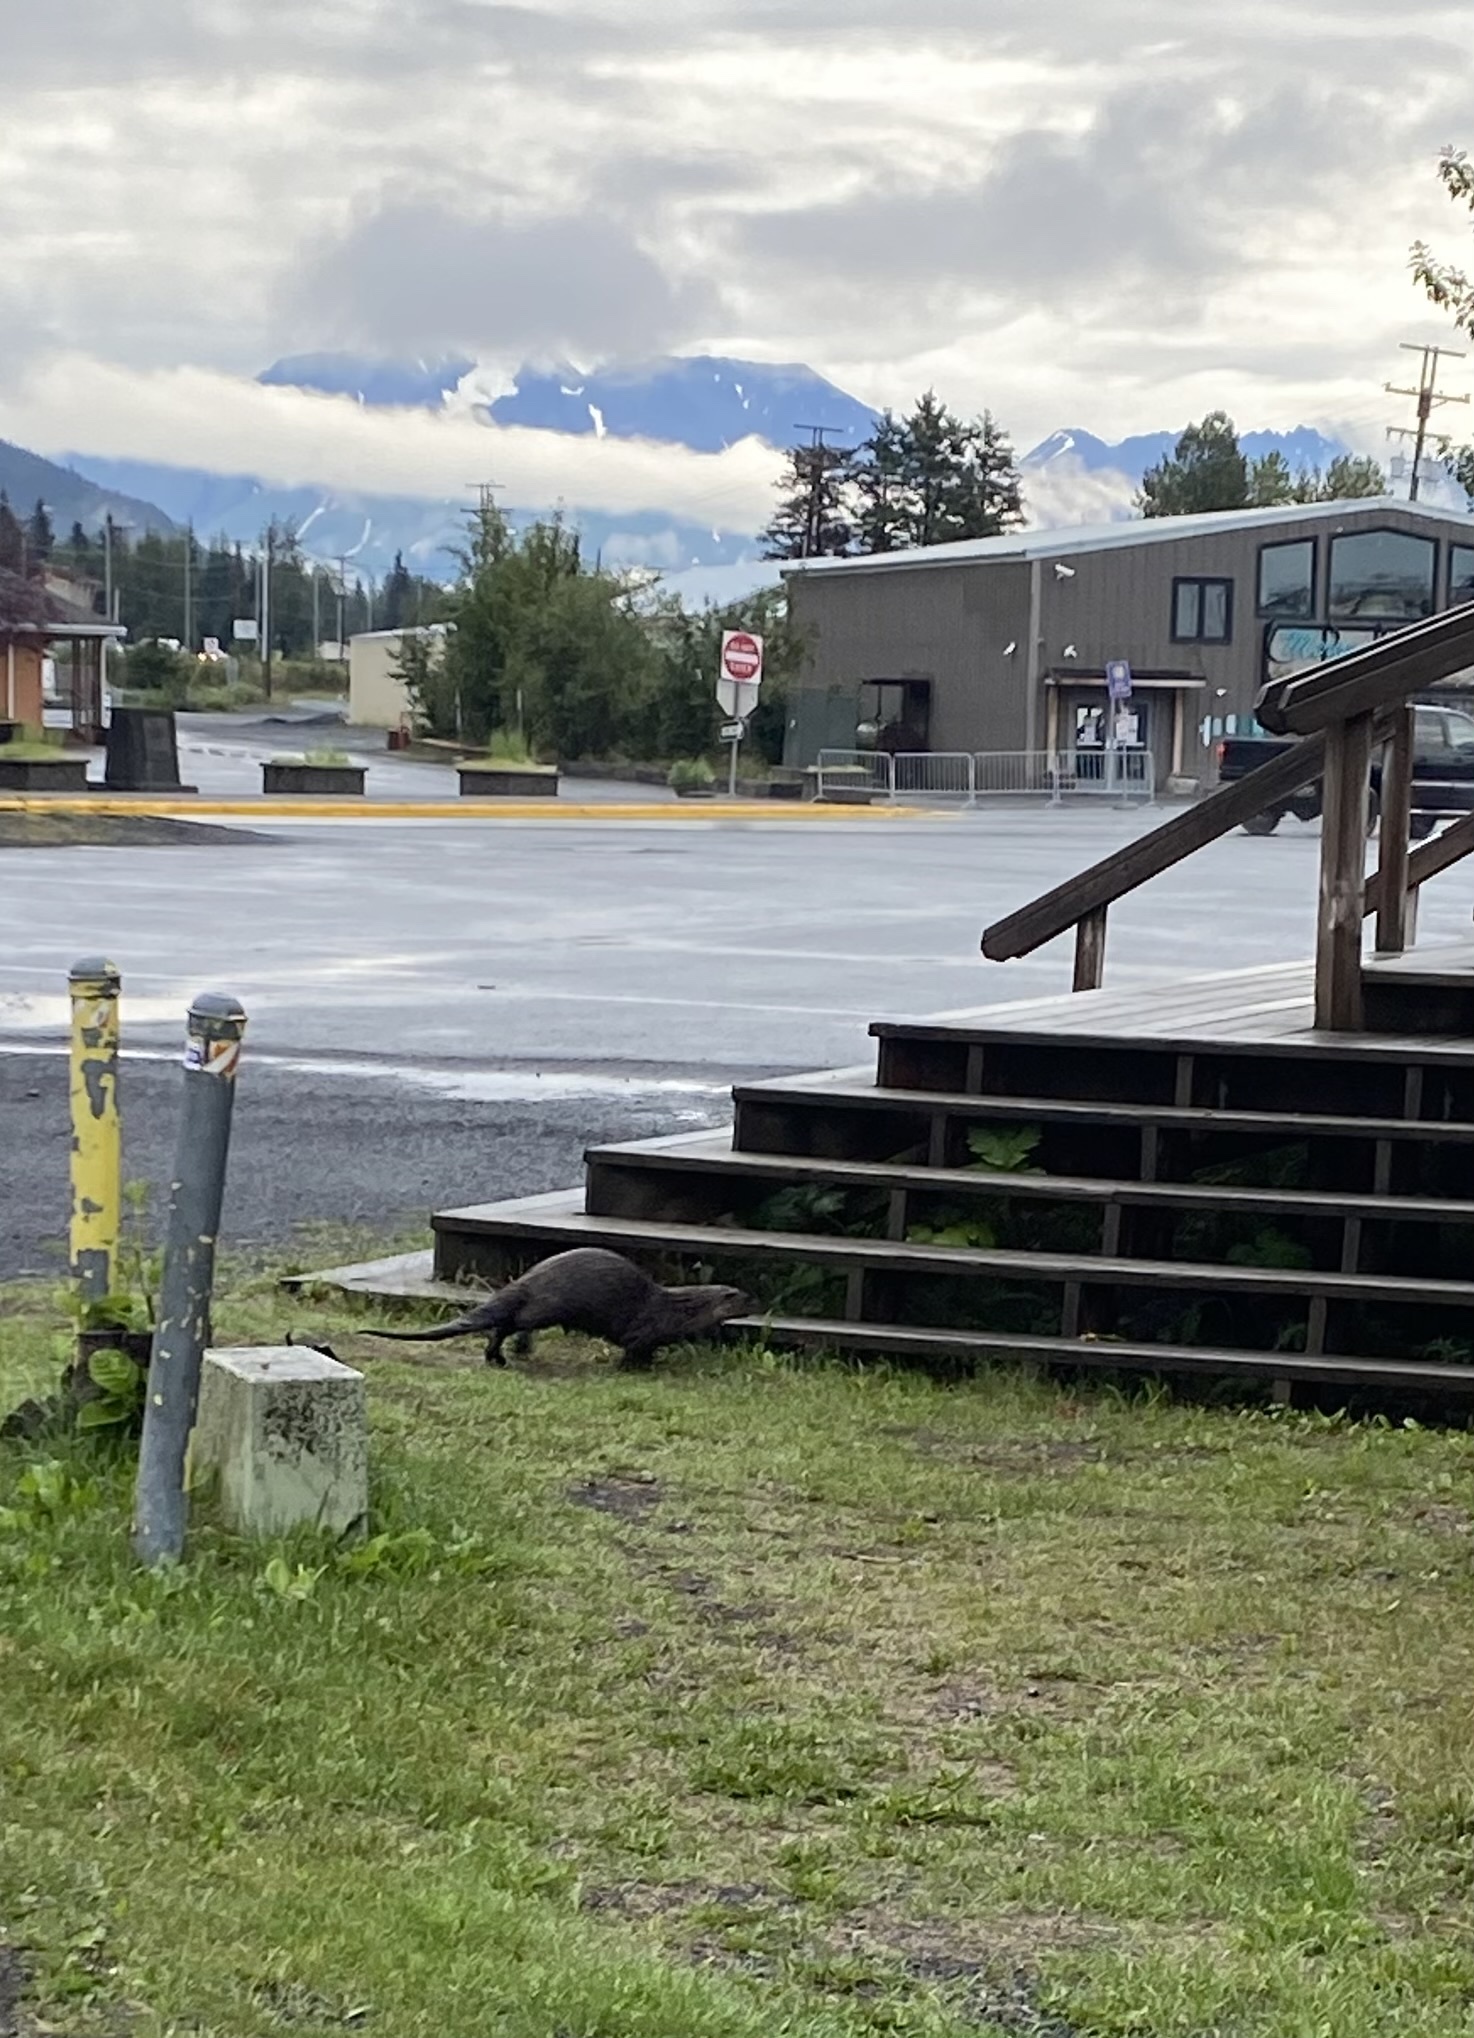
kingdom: Animalia
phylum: Chordata
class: Mammalia
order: Carnivora
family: Mustelidae
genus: Lontra
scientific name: Lontra canadensis
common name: North american river otter
